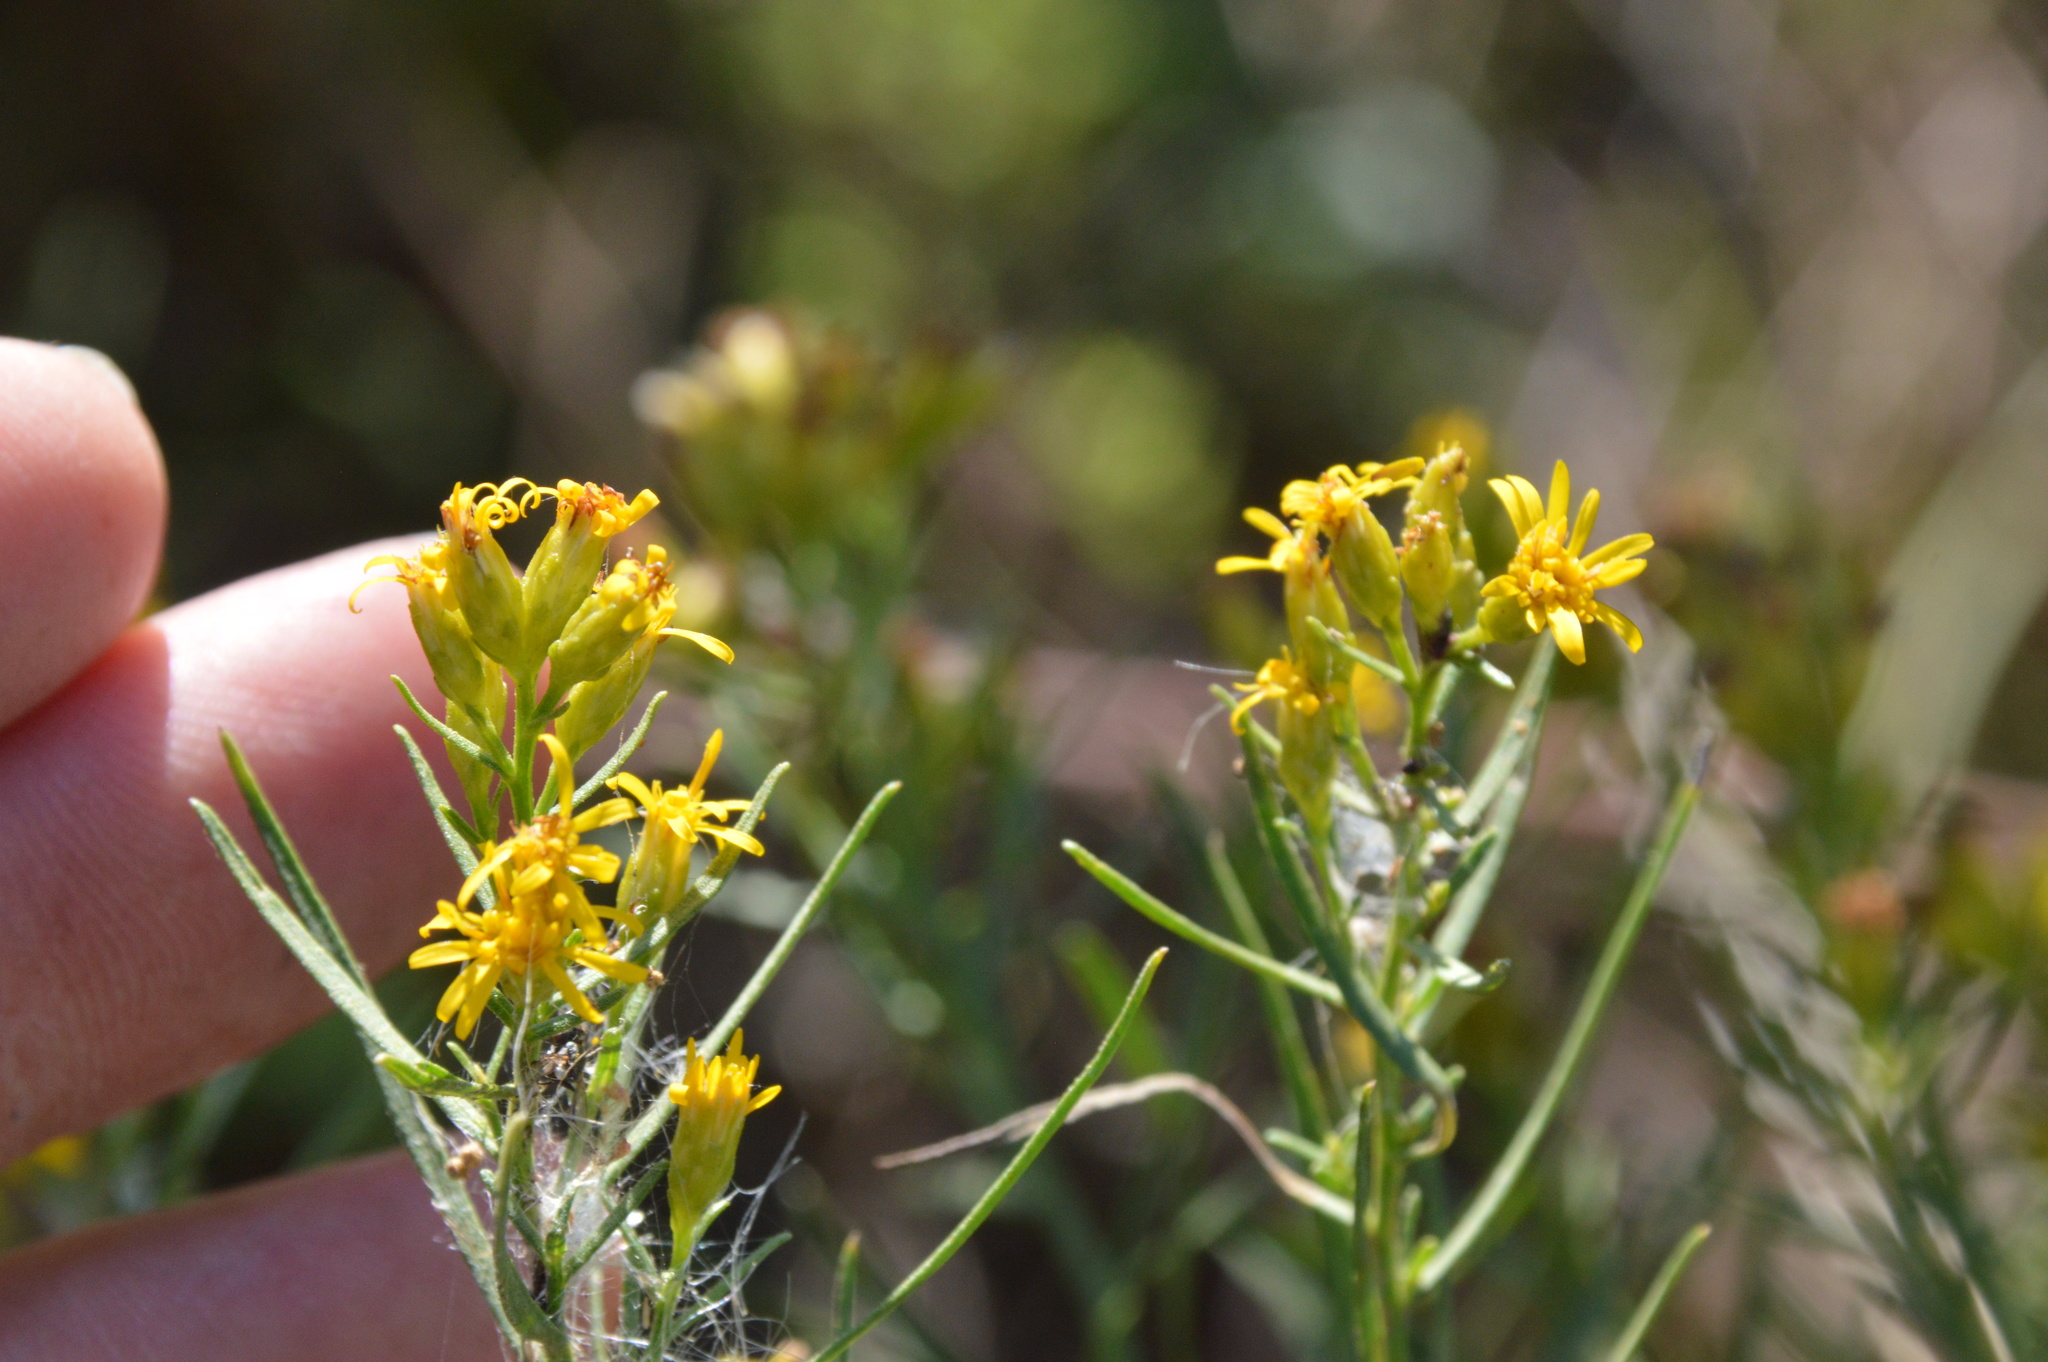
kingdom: Plantae
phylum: Tracheophyta
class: Magnoliopsida
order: Asterales
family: Asteraceae
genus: Euthamia
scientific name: Euthamia gymnospermoides
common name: Great plains goldentop
